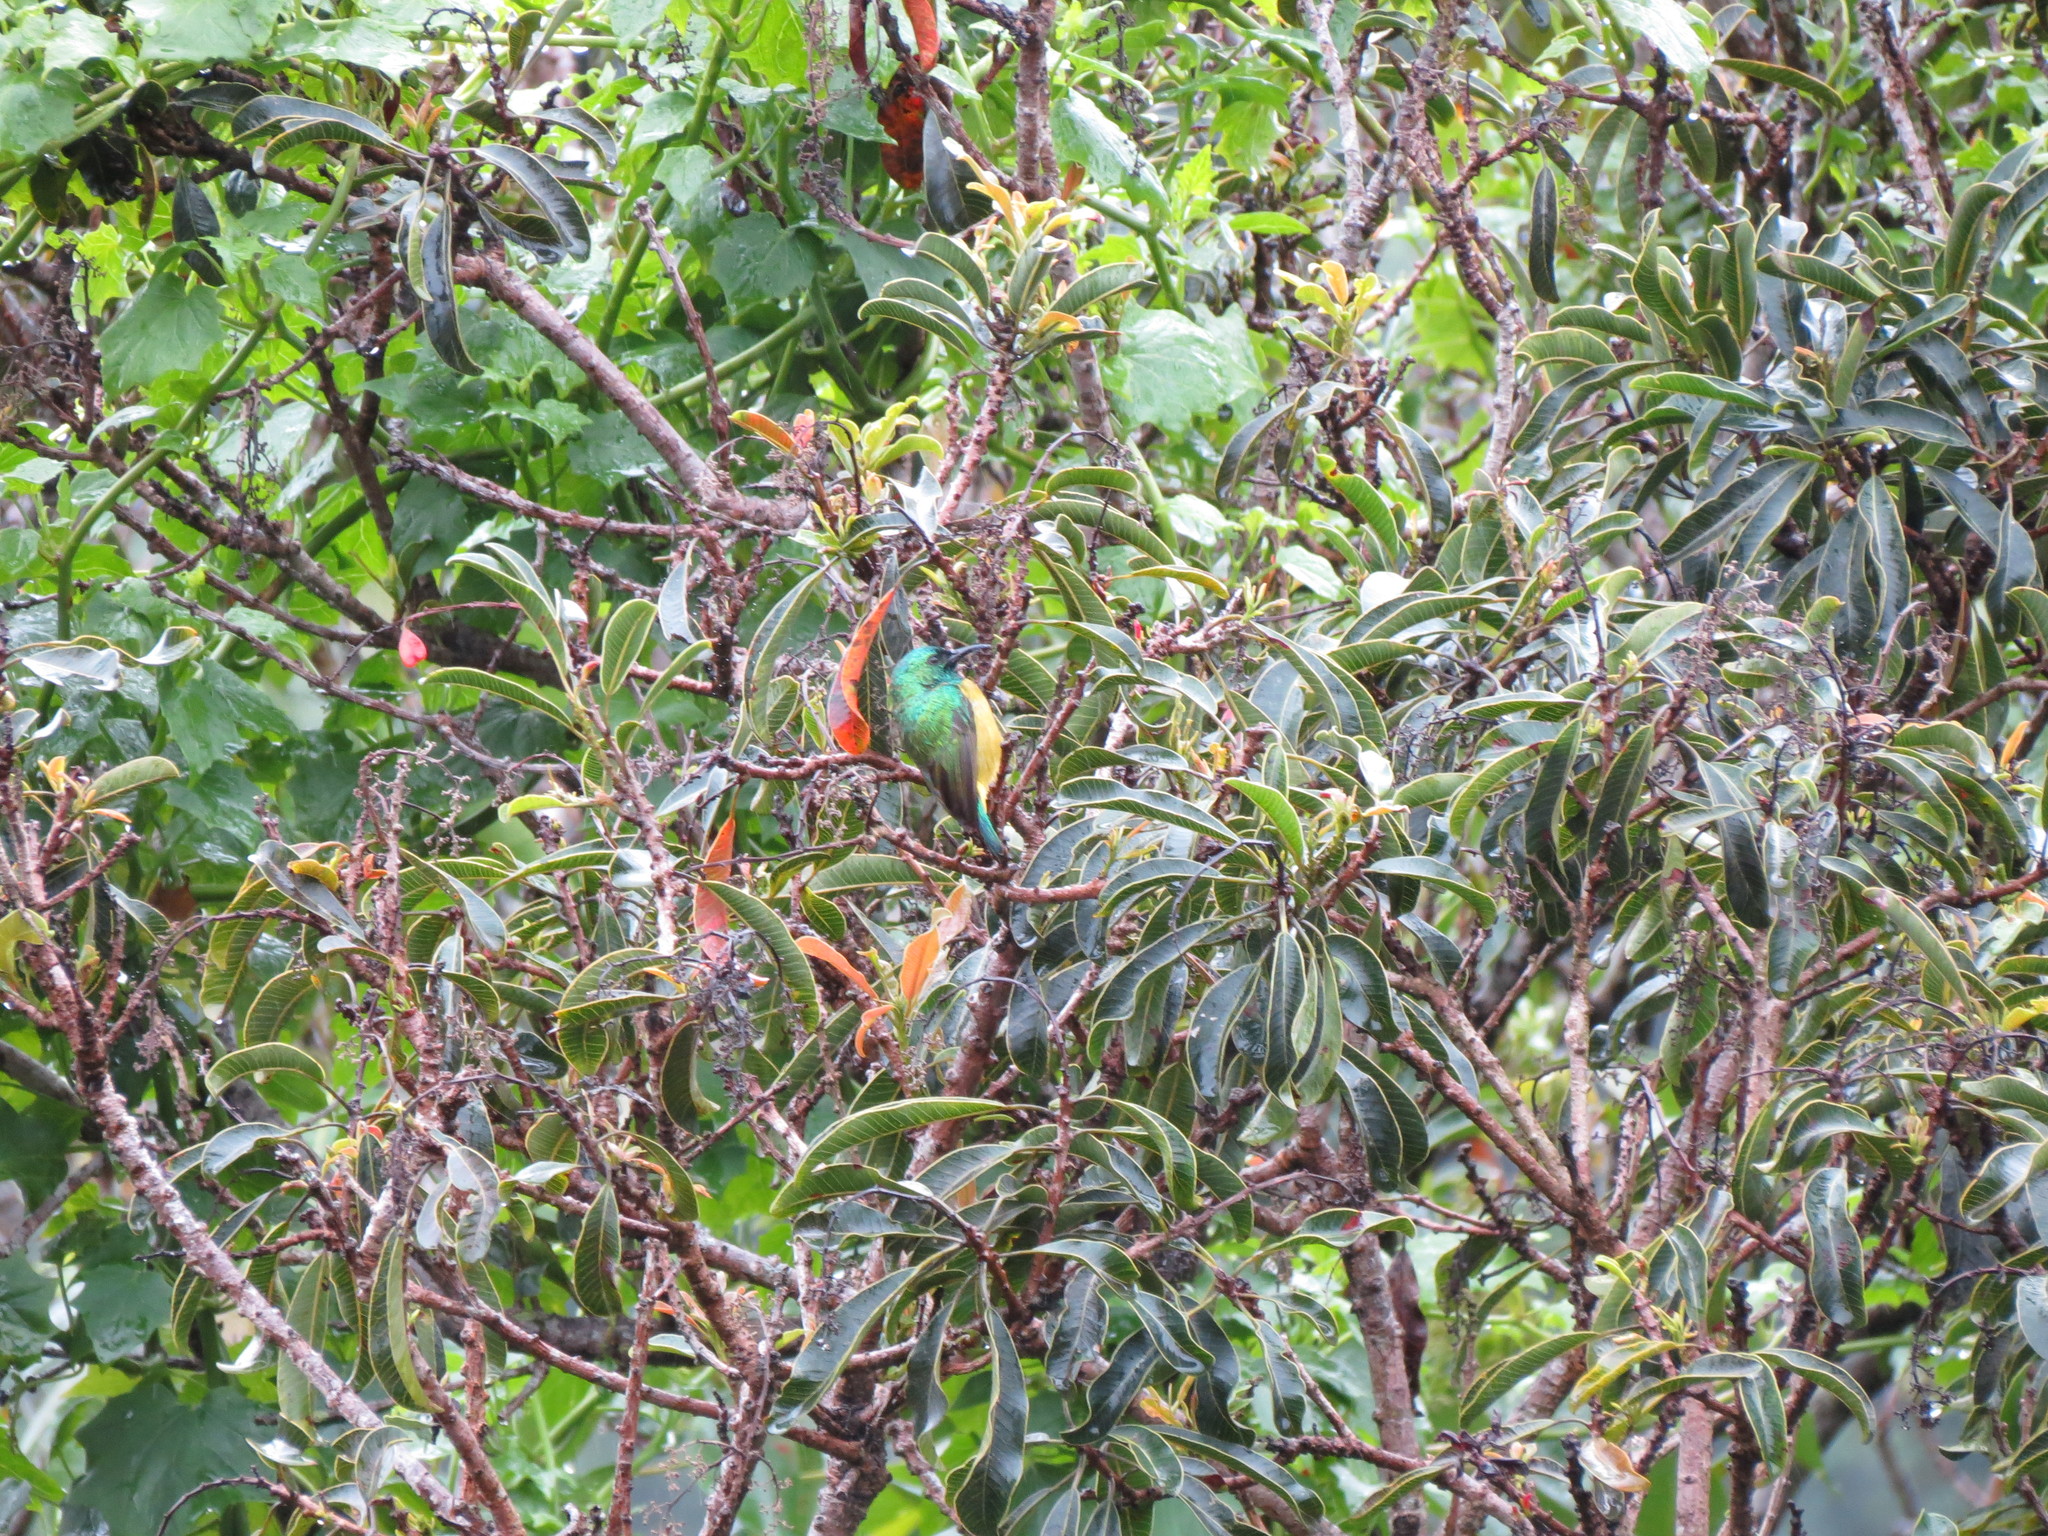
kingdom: Animalia
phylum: Chordata
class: Aves
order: Passeriformes
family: Nectariniidae
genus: Hedydipna
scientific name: Hedydipna collaris
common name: Collared sunbird
